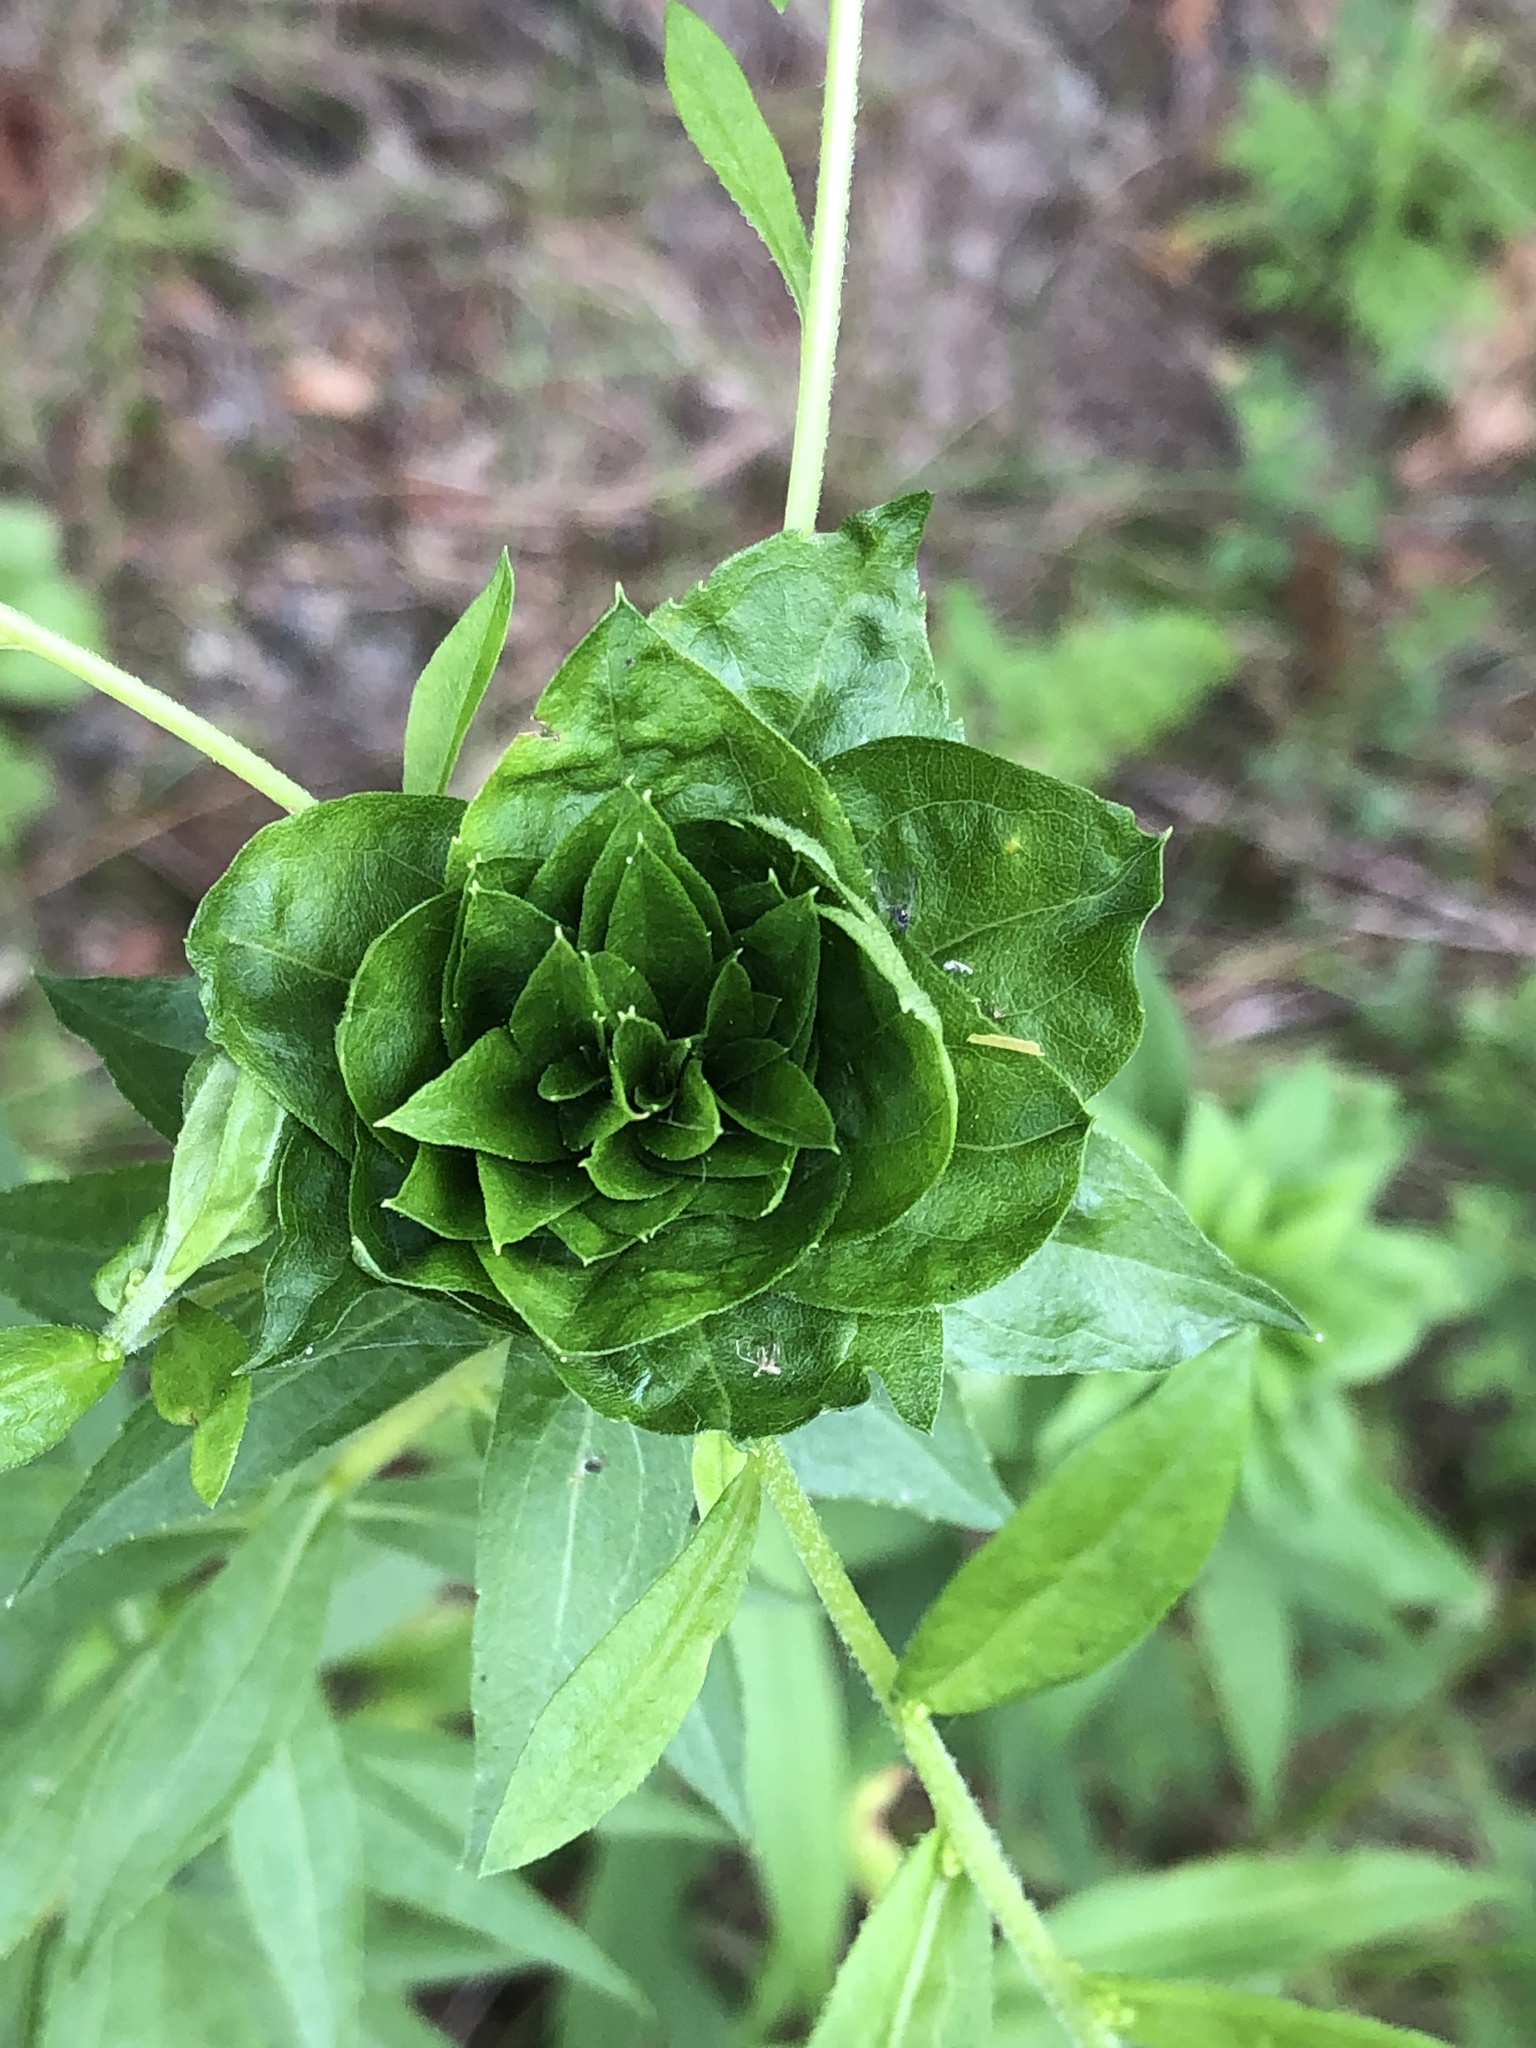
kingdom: Animalia
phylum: Arthropoda
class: Insecta
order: Diptera
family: Cecidomyiidae
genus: Rhopalomyia
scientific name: Rhopalomyia solidaginis
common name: Goldenrod bunch gall midge
